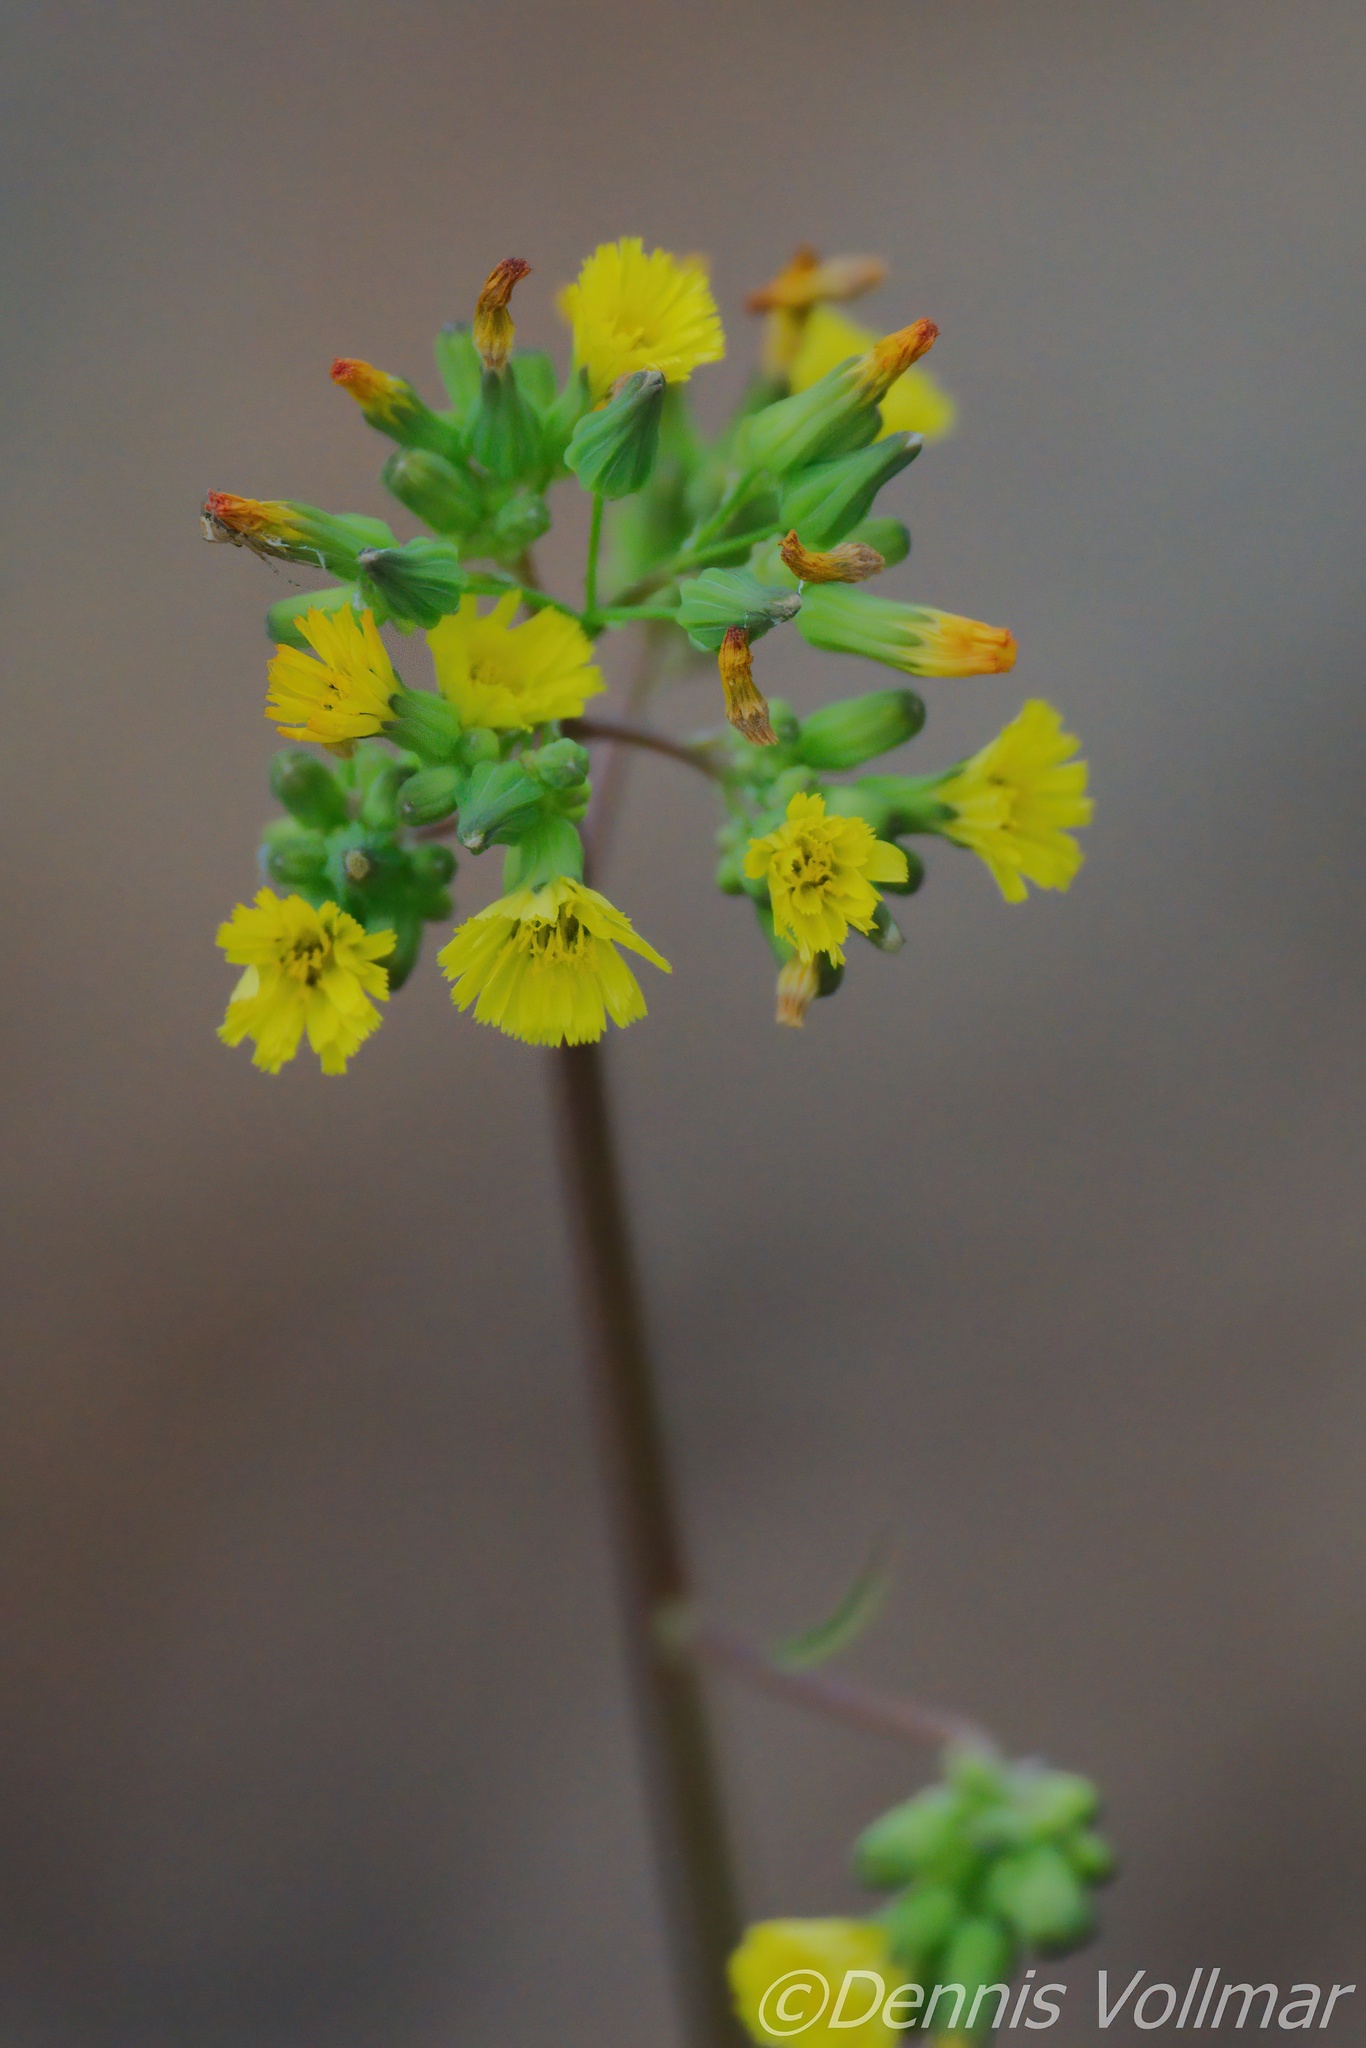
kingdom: Plantae
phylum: Tracheophyta
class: Magnoliopsida
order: Asterales
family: Asteraceae
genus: Youngia
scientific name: Youngia japonica
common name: Oriental false hawksbeard
